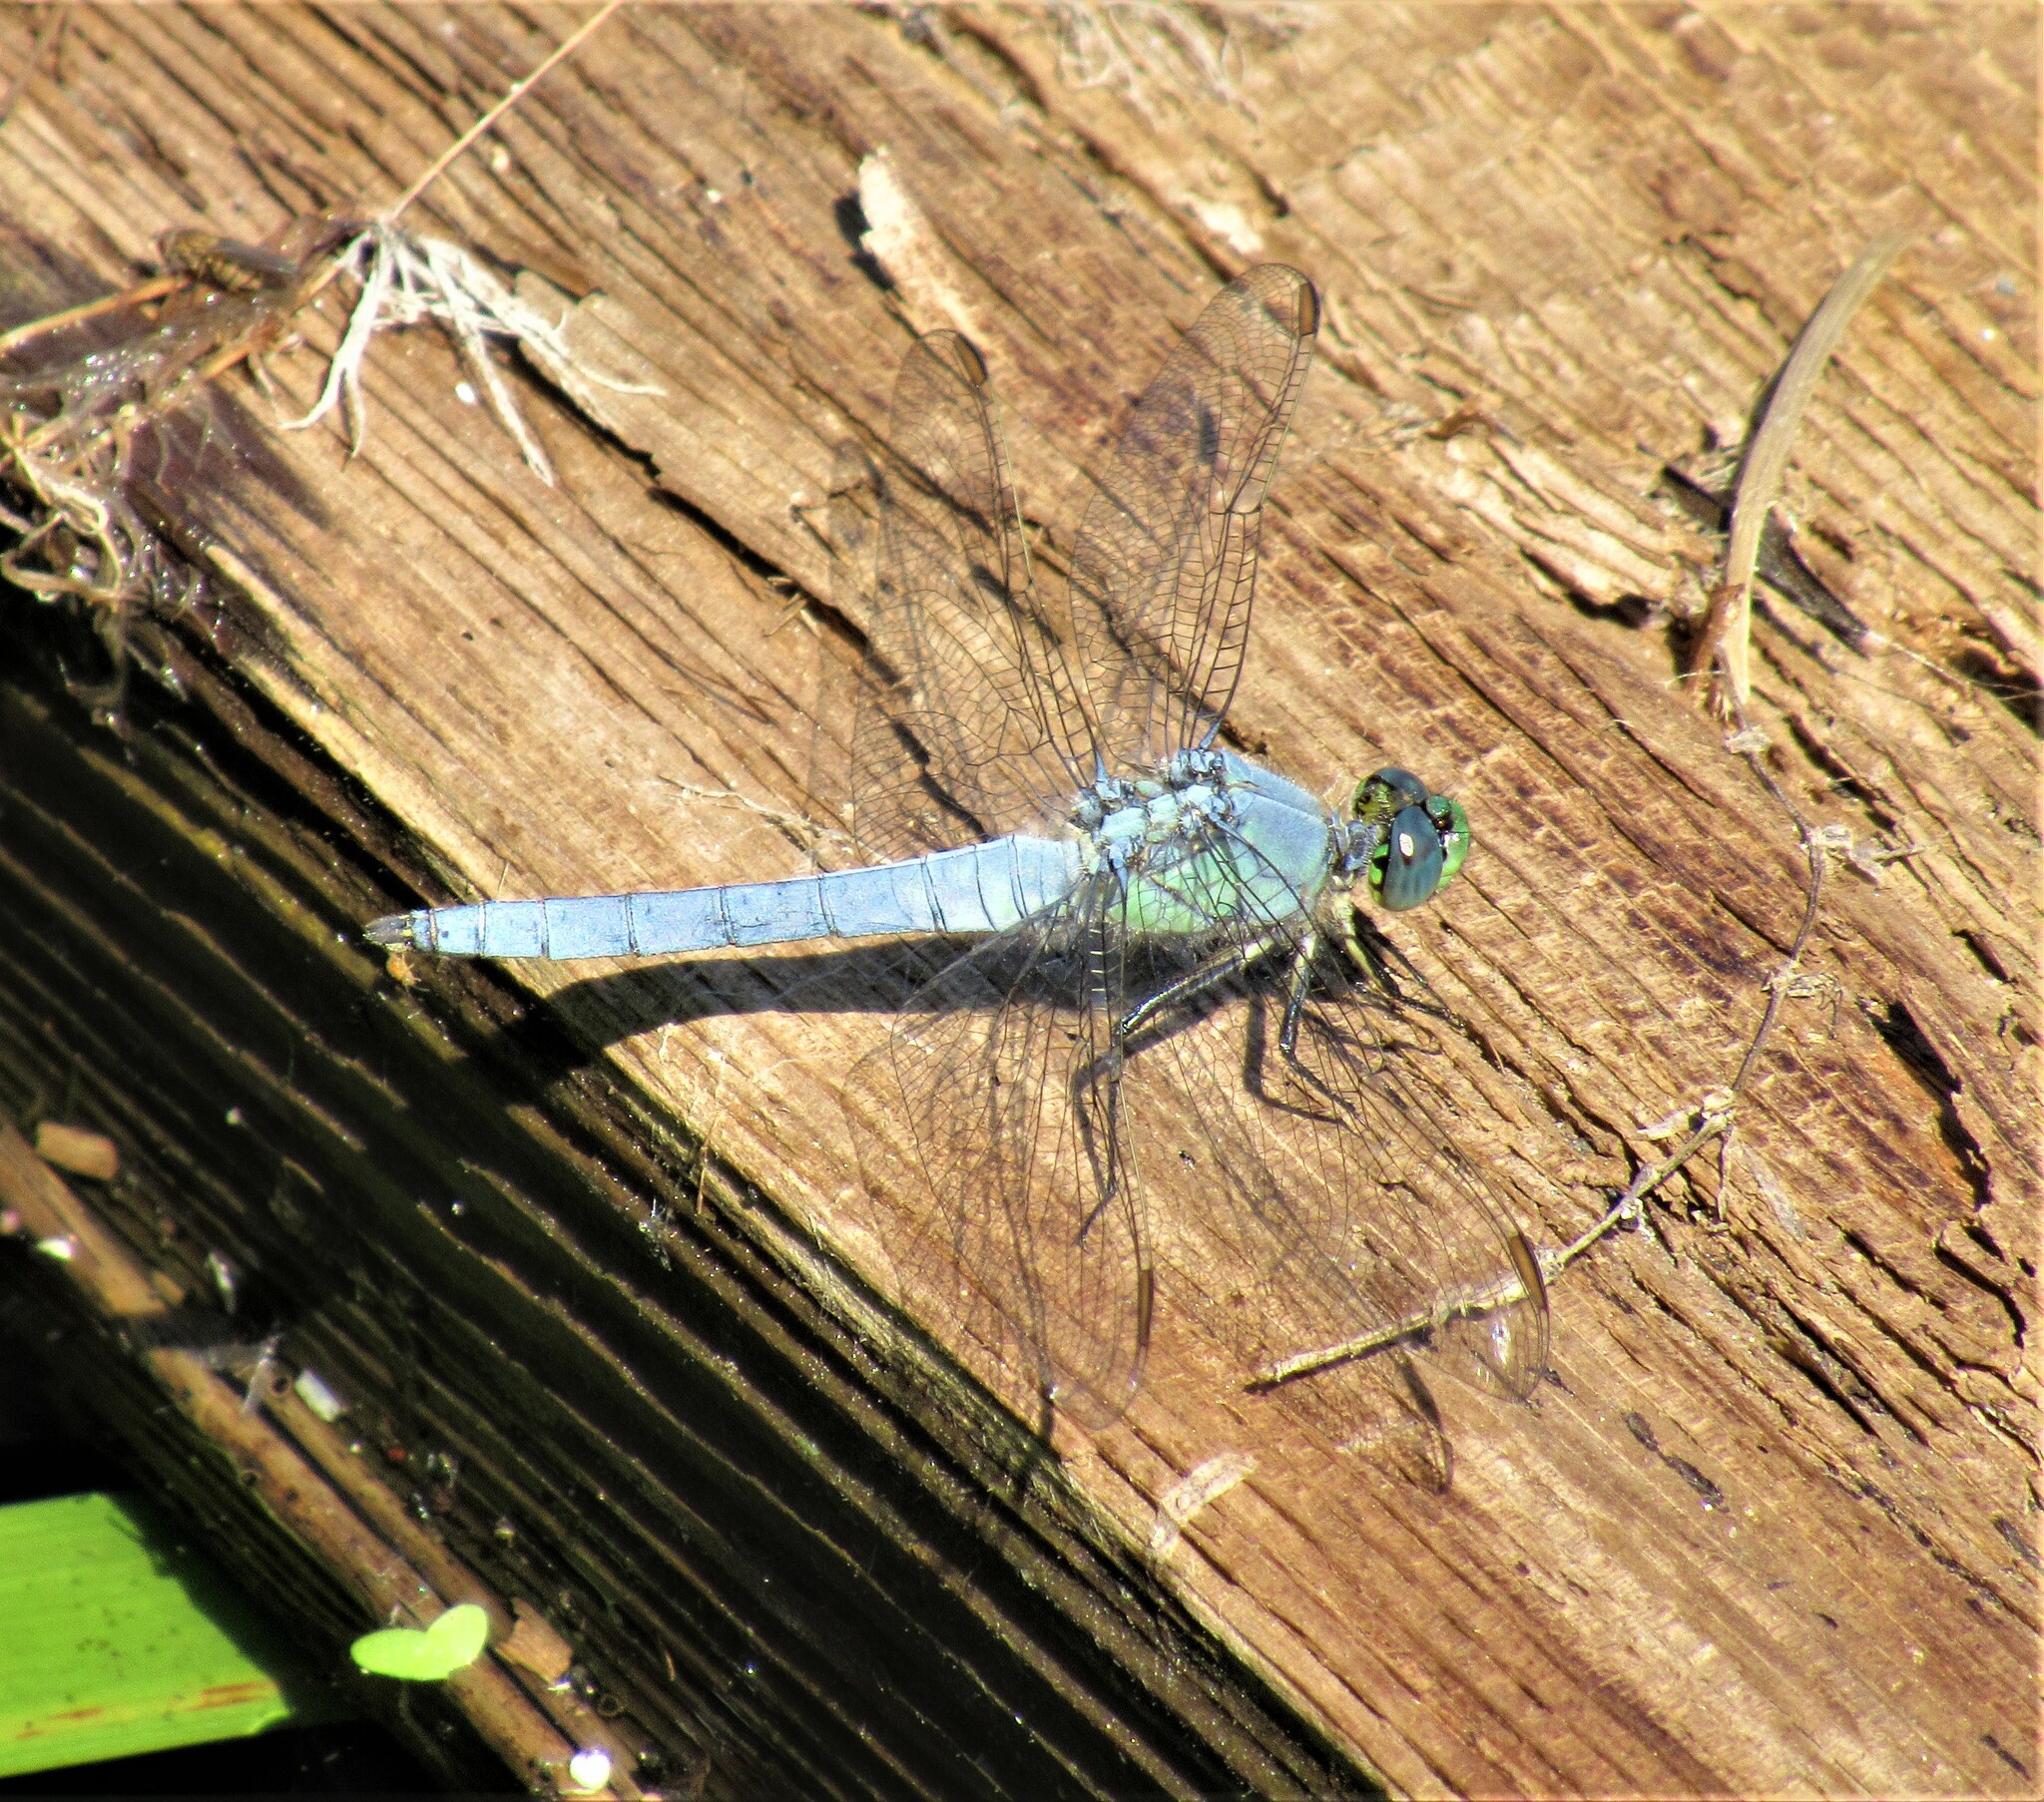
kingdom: Animalia
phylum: Arthropoda
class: Insecta
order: Odonata
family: Libellulidae
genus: Erythemis
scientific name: Erythemis collocata
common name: Western pondhawk
